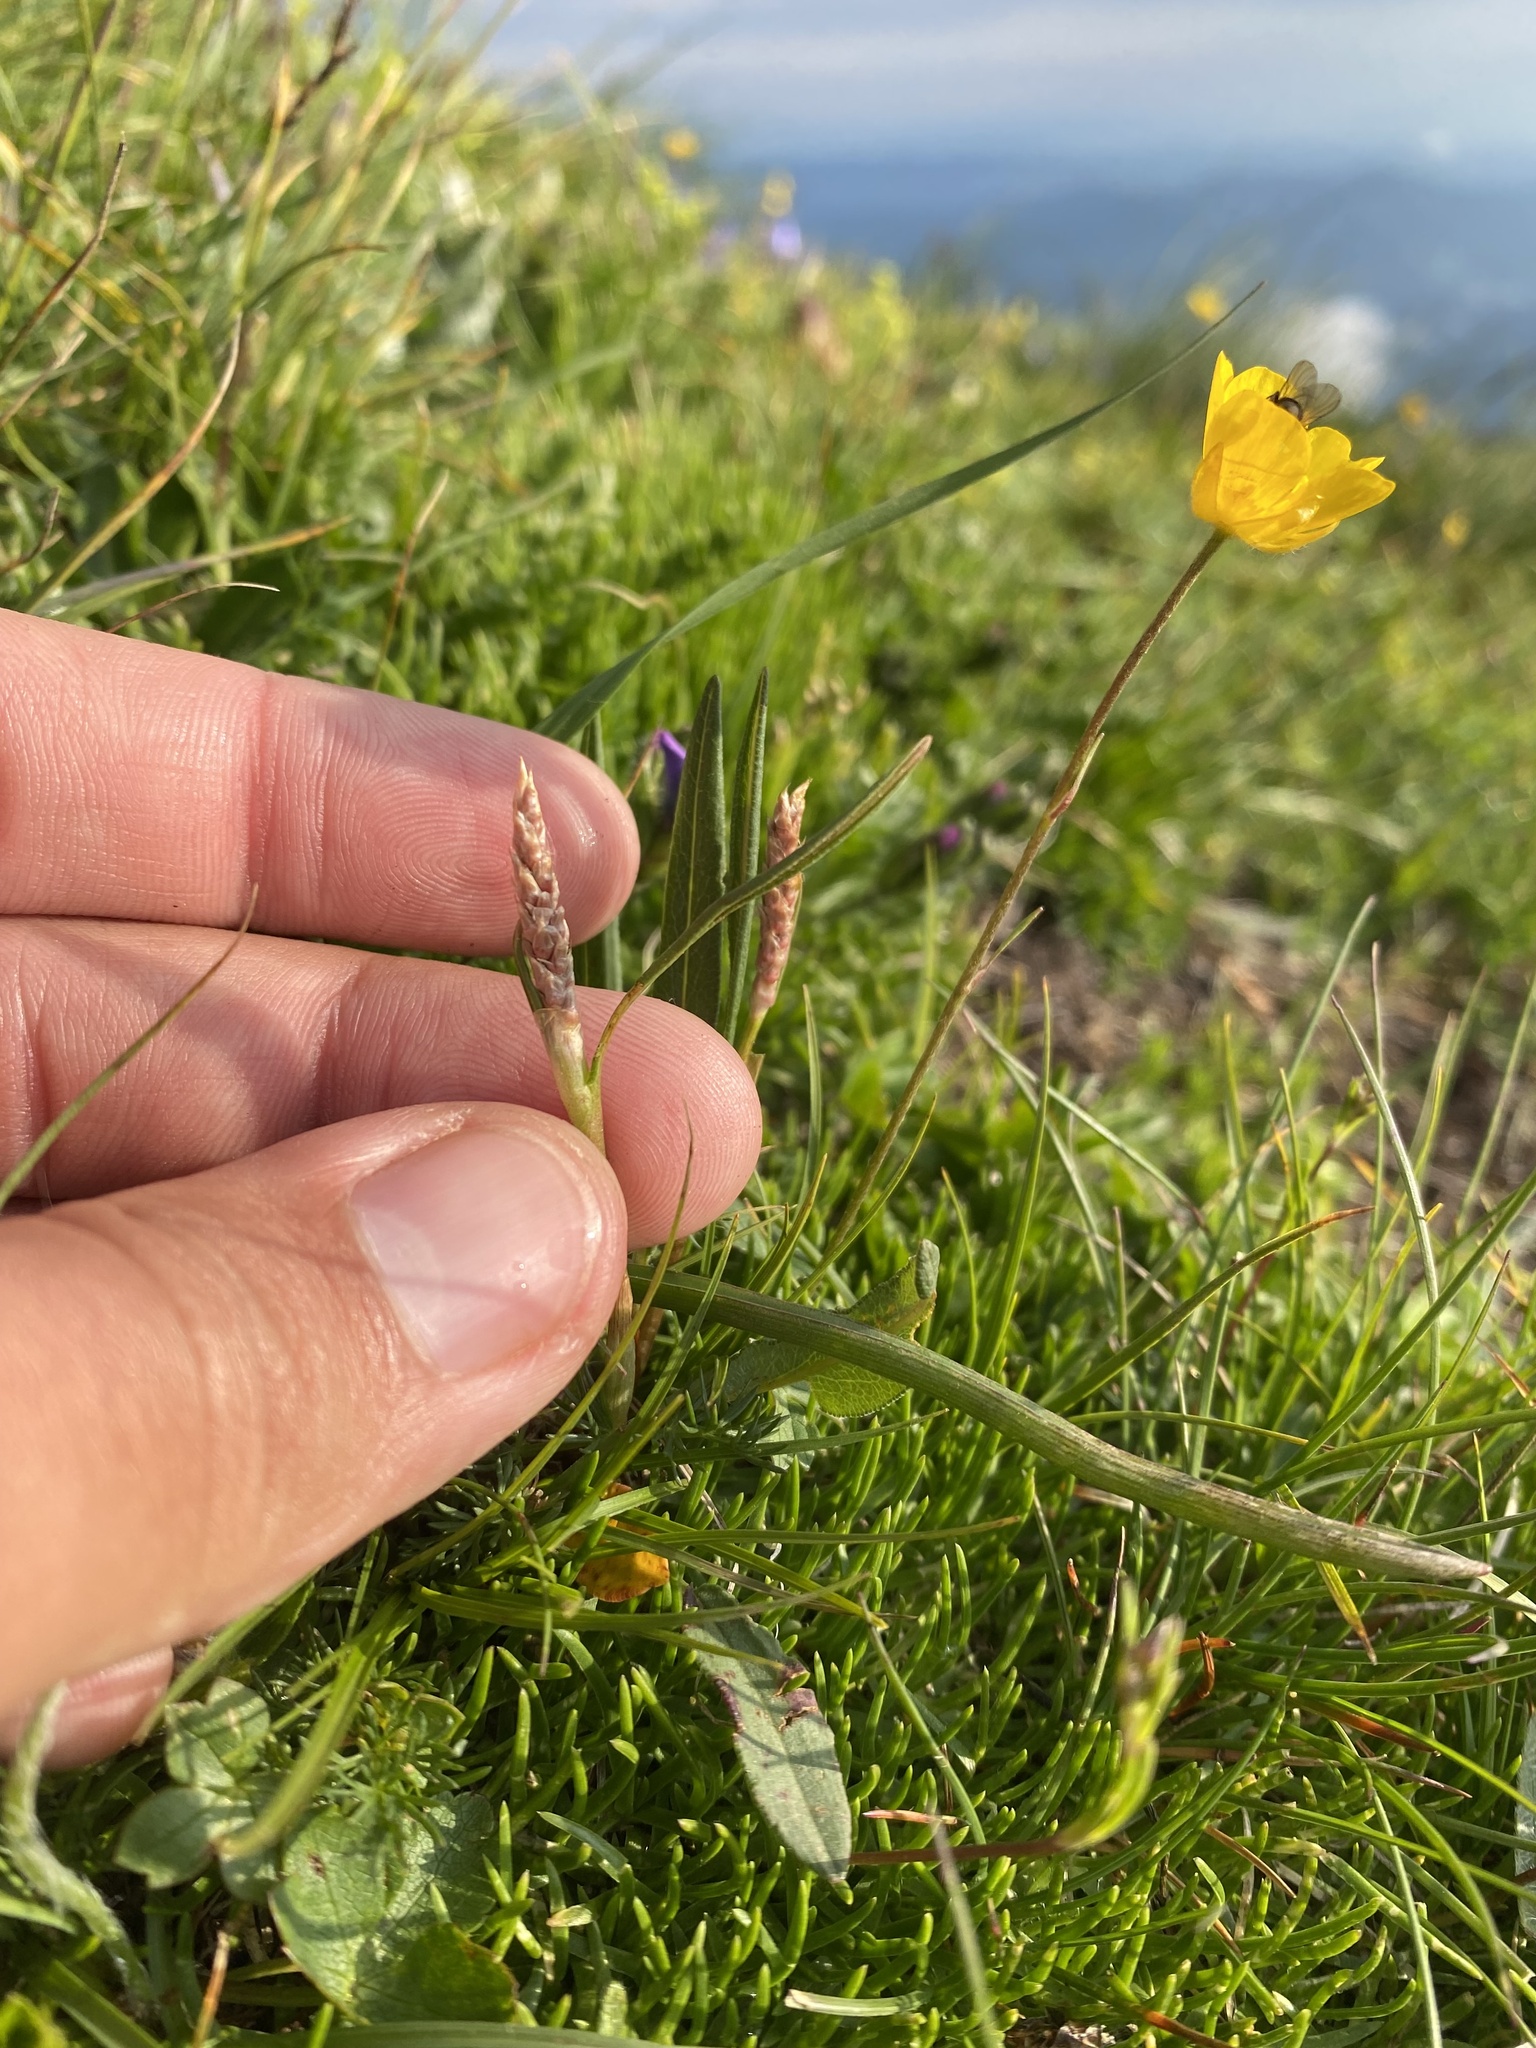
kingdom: Plantae
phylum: Tracheophyta
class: Magnoliopsida
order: Caryophyllales
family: Polygonaceae
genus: Bistorta
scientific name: Bistorta vivipara
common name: Alpine bistort
